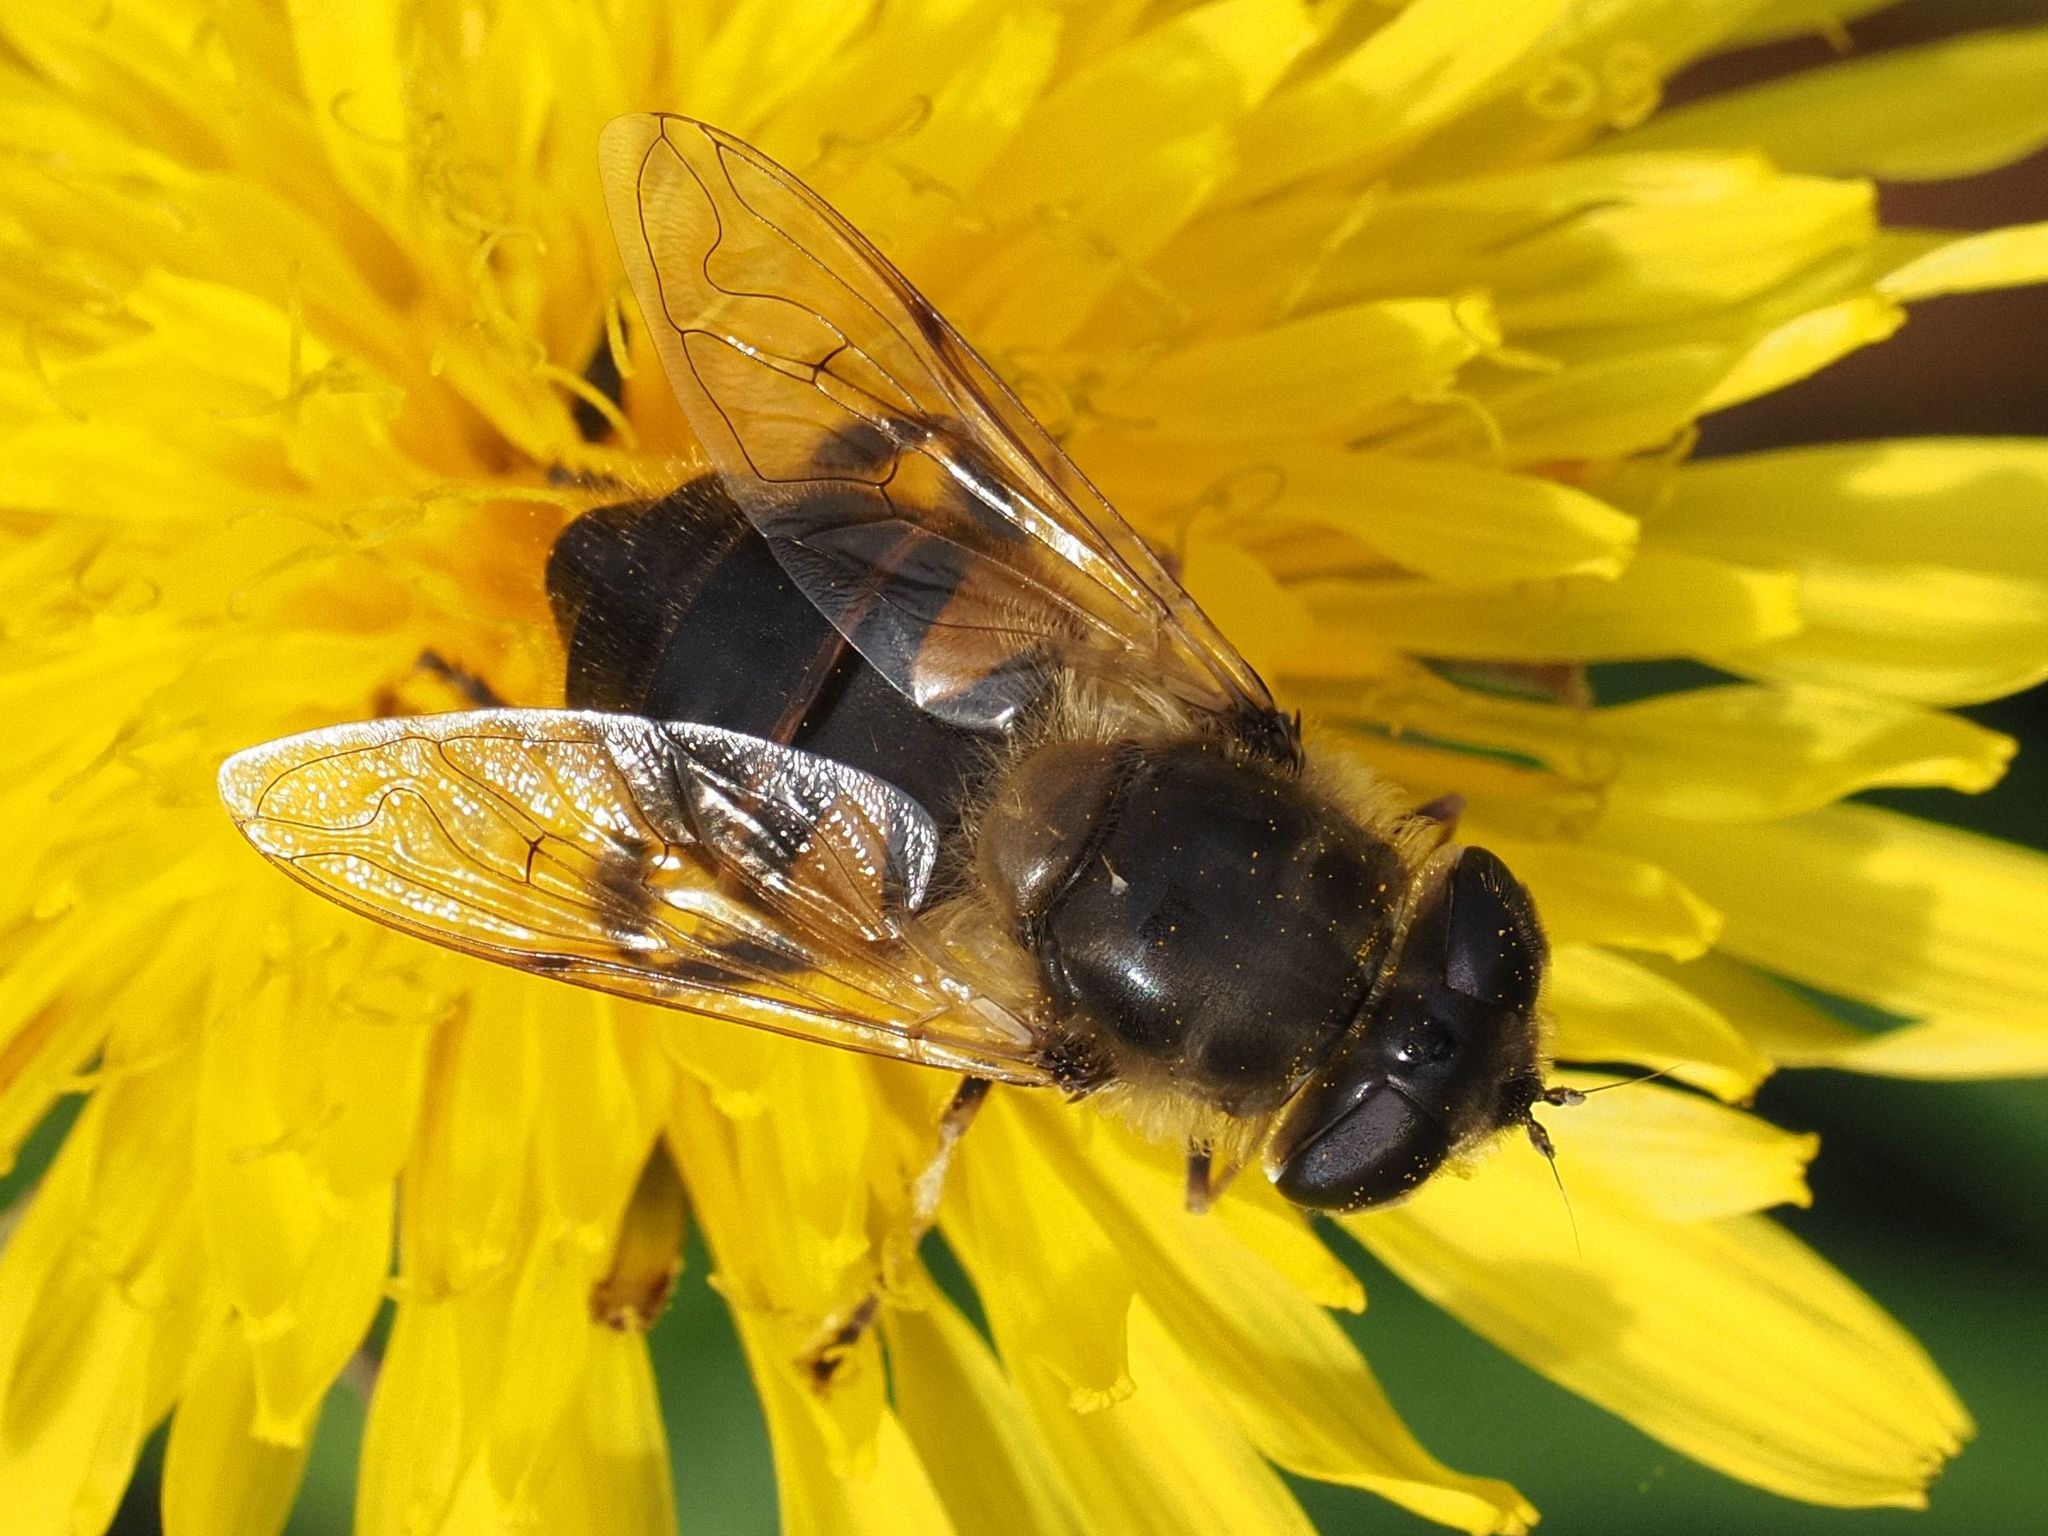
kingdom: Animalia
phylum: Arthropoda
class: Insecta
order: Diptera
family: Syrphidae
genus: Eristalis
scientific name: Eristalis tenax
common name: Drone fly
